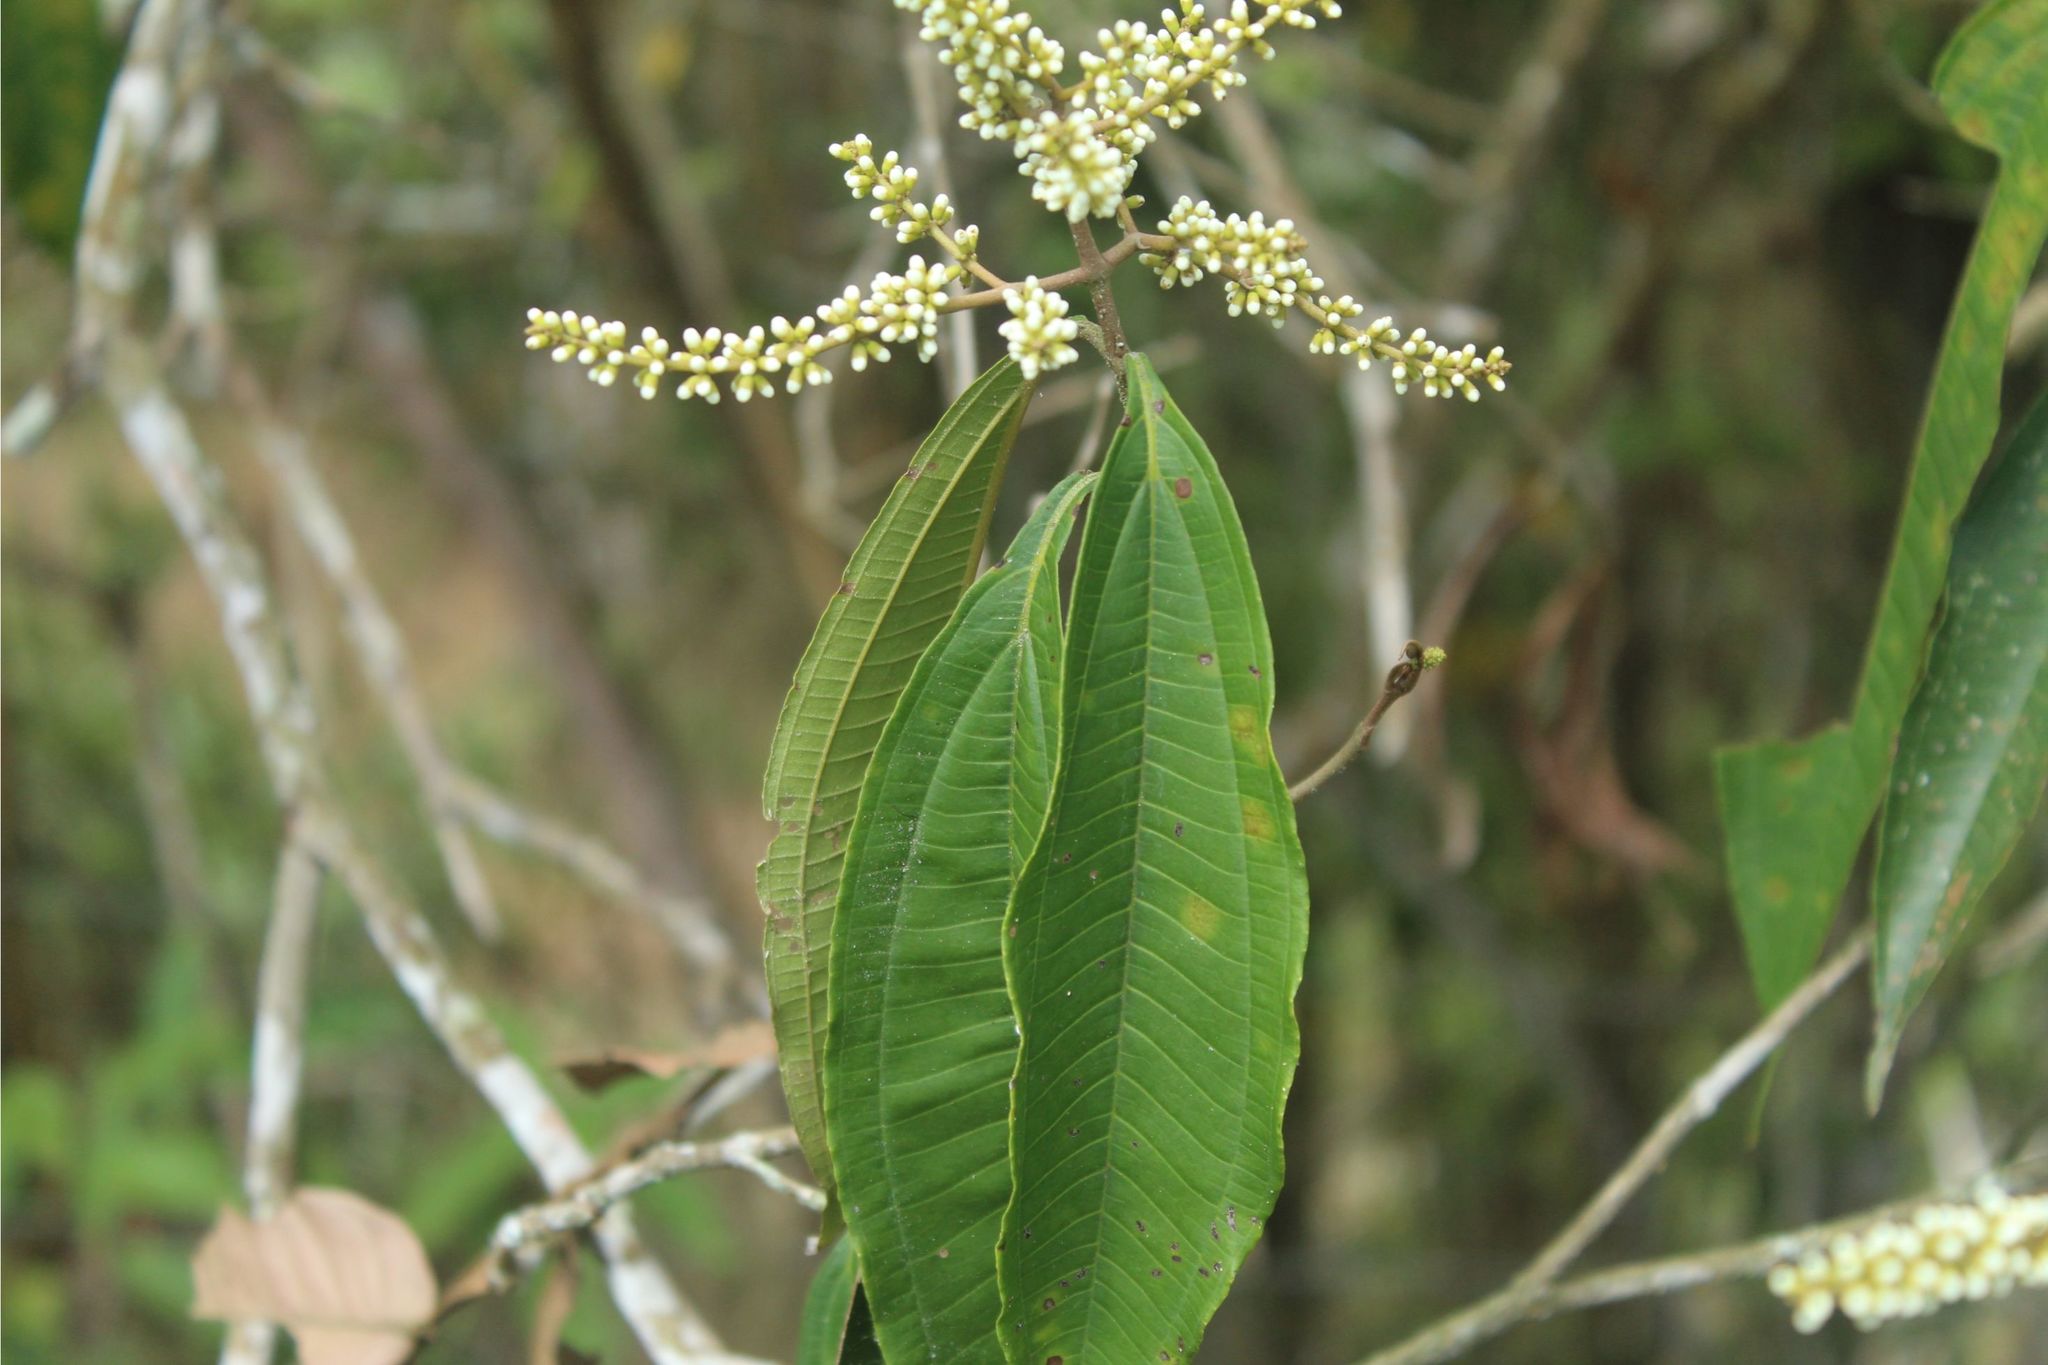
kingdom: Plantae
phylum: Tracheophyta
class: Magnoliopsida
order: Myrtales
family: Melastomataceae
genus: Miconia
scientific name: Miconia spicellata
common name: Bonpland maya
